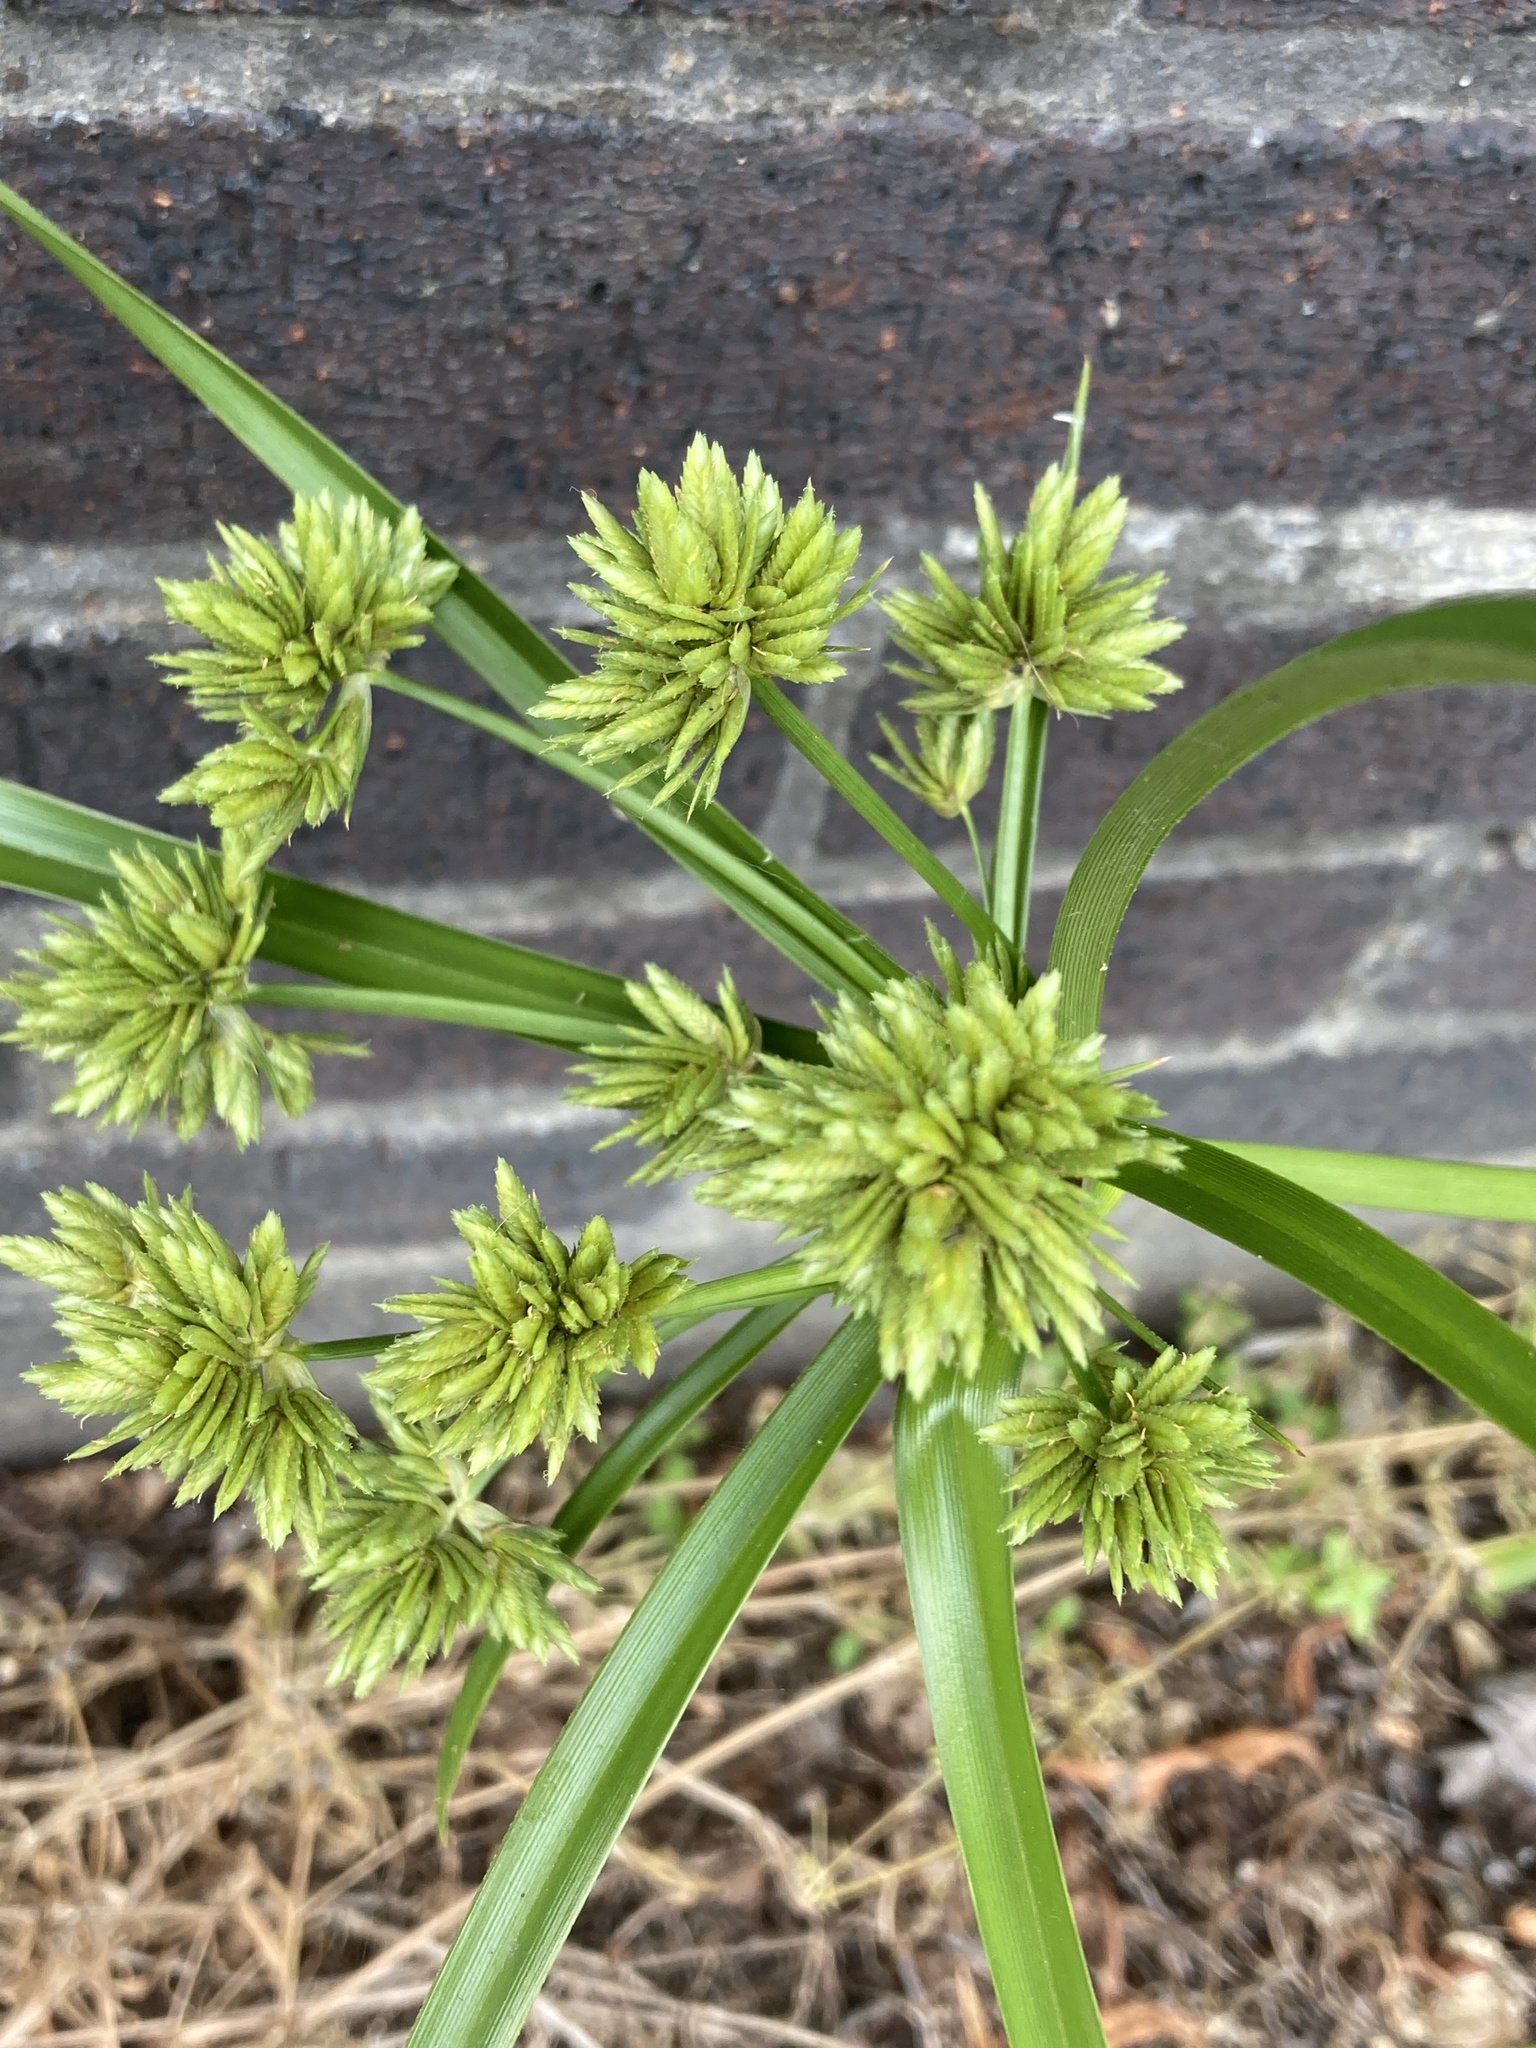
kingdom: Plantae
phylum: Tracheophyta
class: Liliopsida
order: Poales
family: Cyperaceae
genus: Cyperus
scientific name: Cyperus eragrostis
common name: Tall flatsedge
